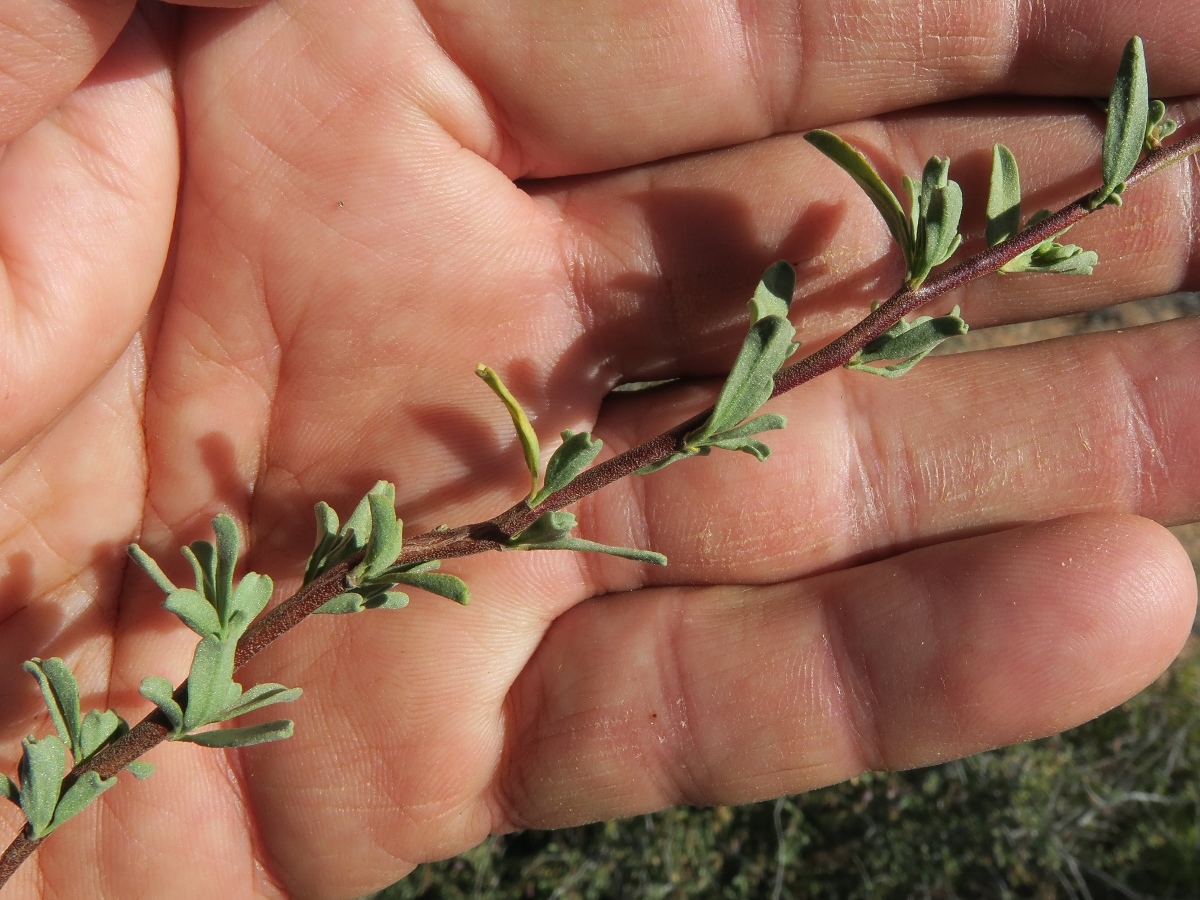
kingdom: Plantae
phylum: Tracheophyta
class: Magnoliopsida
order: Malvales
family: Malvaceae
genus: Hermannia
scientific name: Hermannia trifurca
